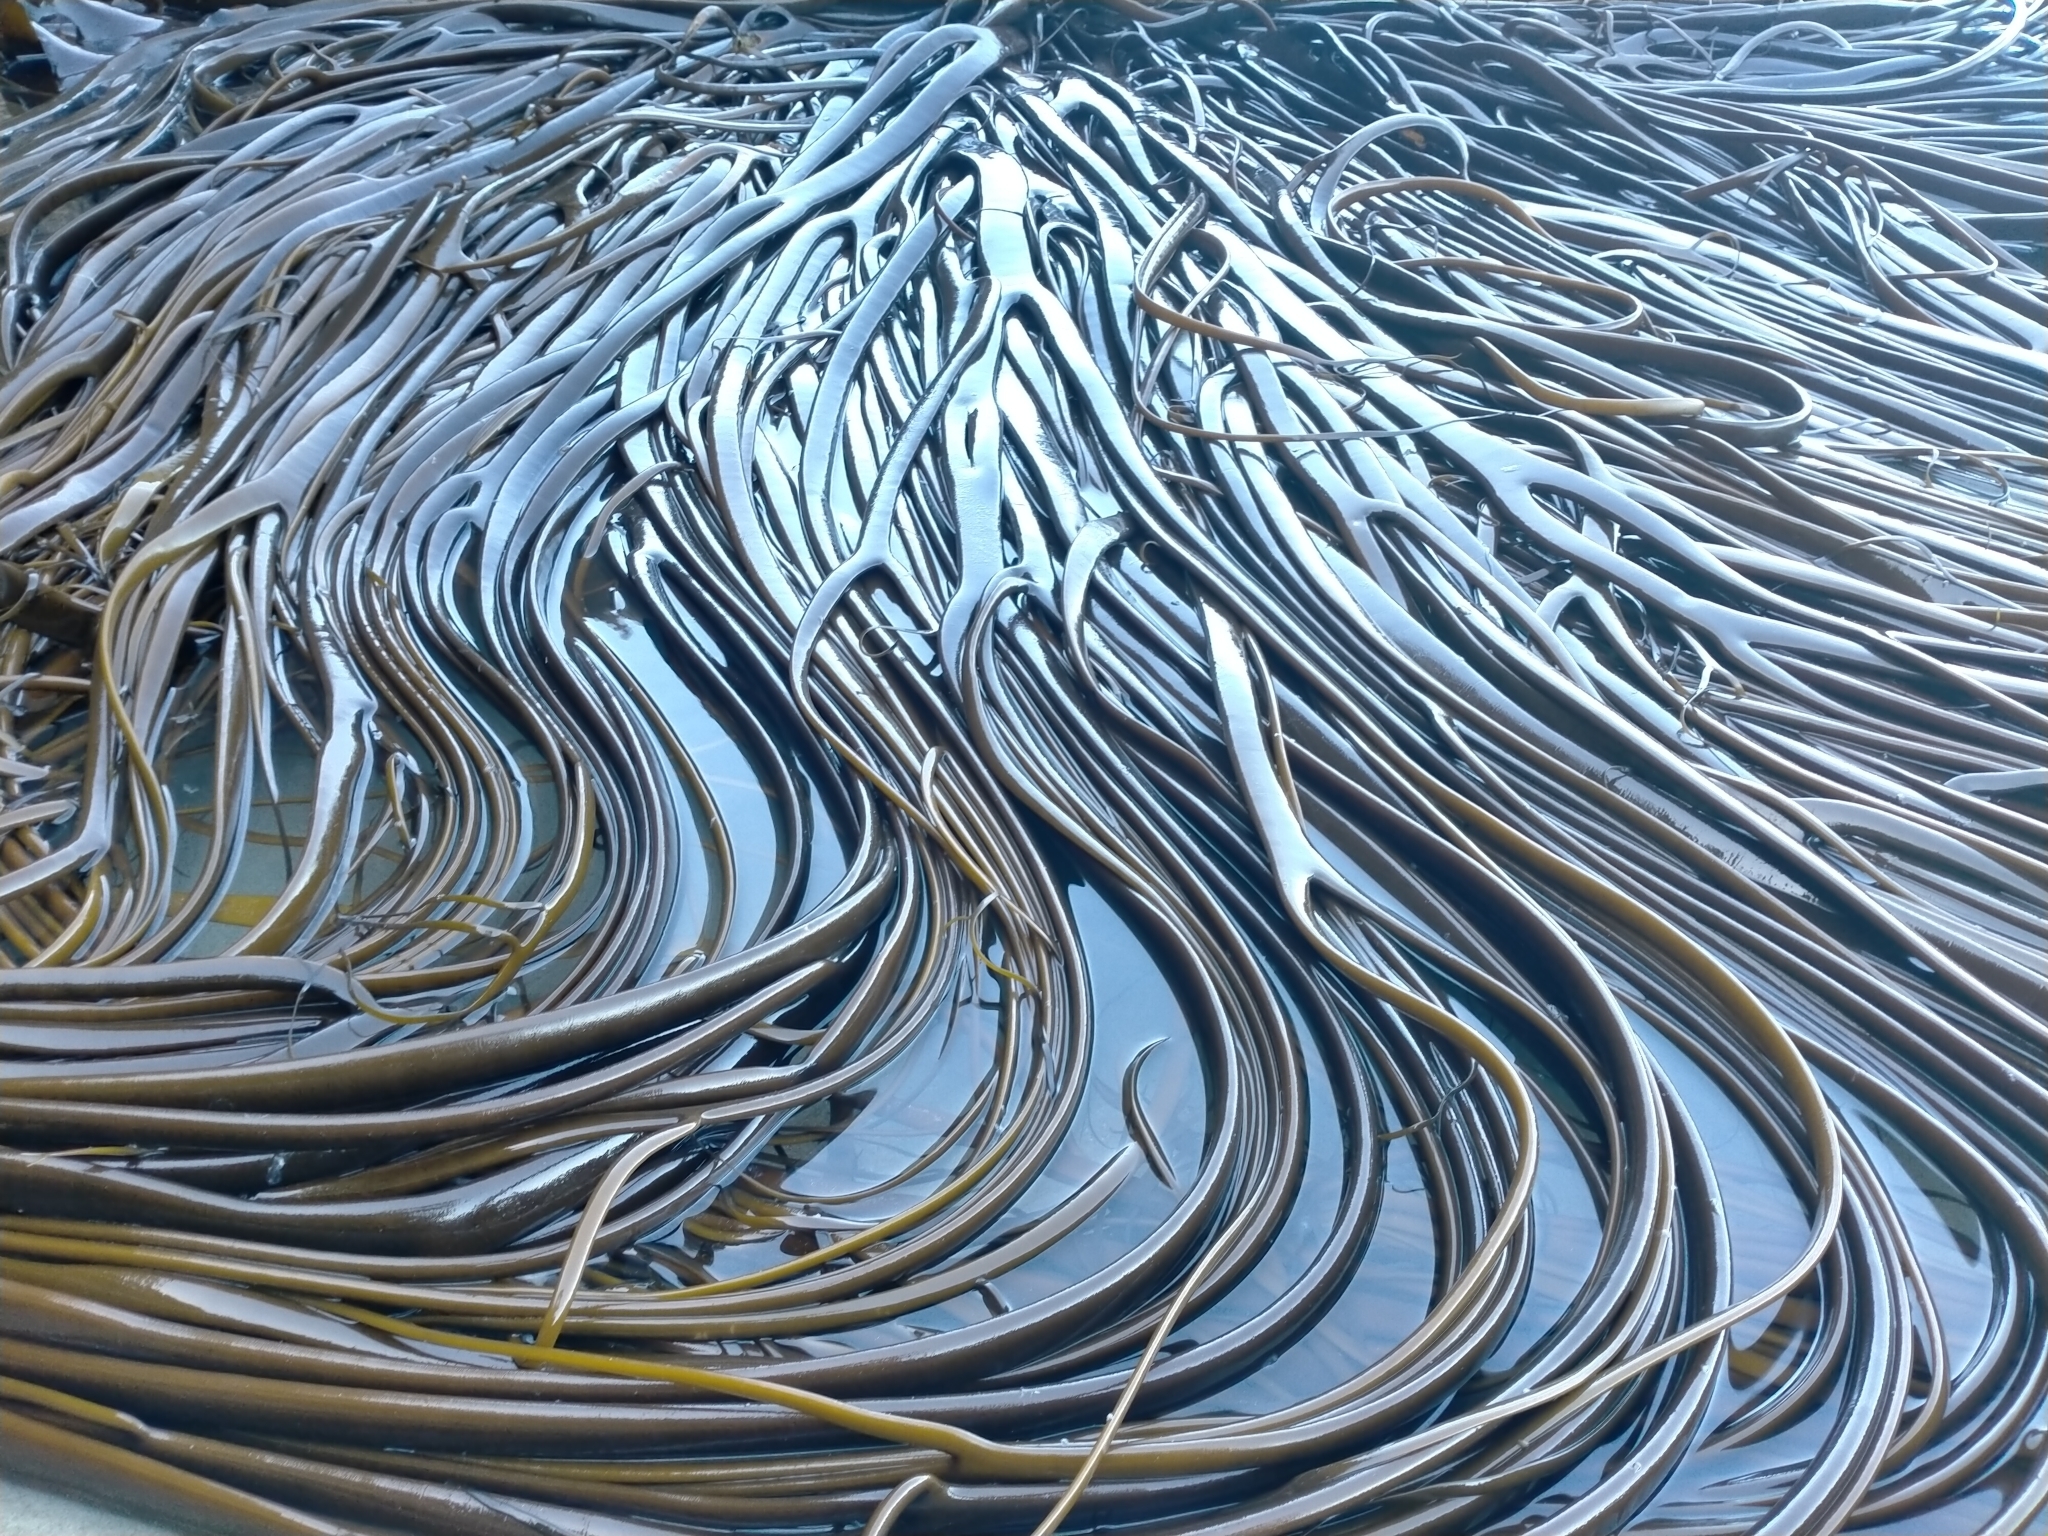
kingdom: Chromista
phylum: Ochrophyta
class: Phaeophyceae
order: Fucales
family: Durvillaeaceae
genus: Durvillaea
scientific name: Durvillaea antarctica
